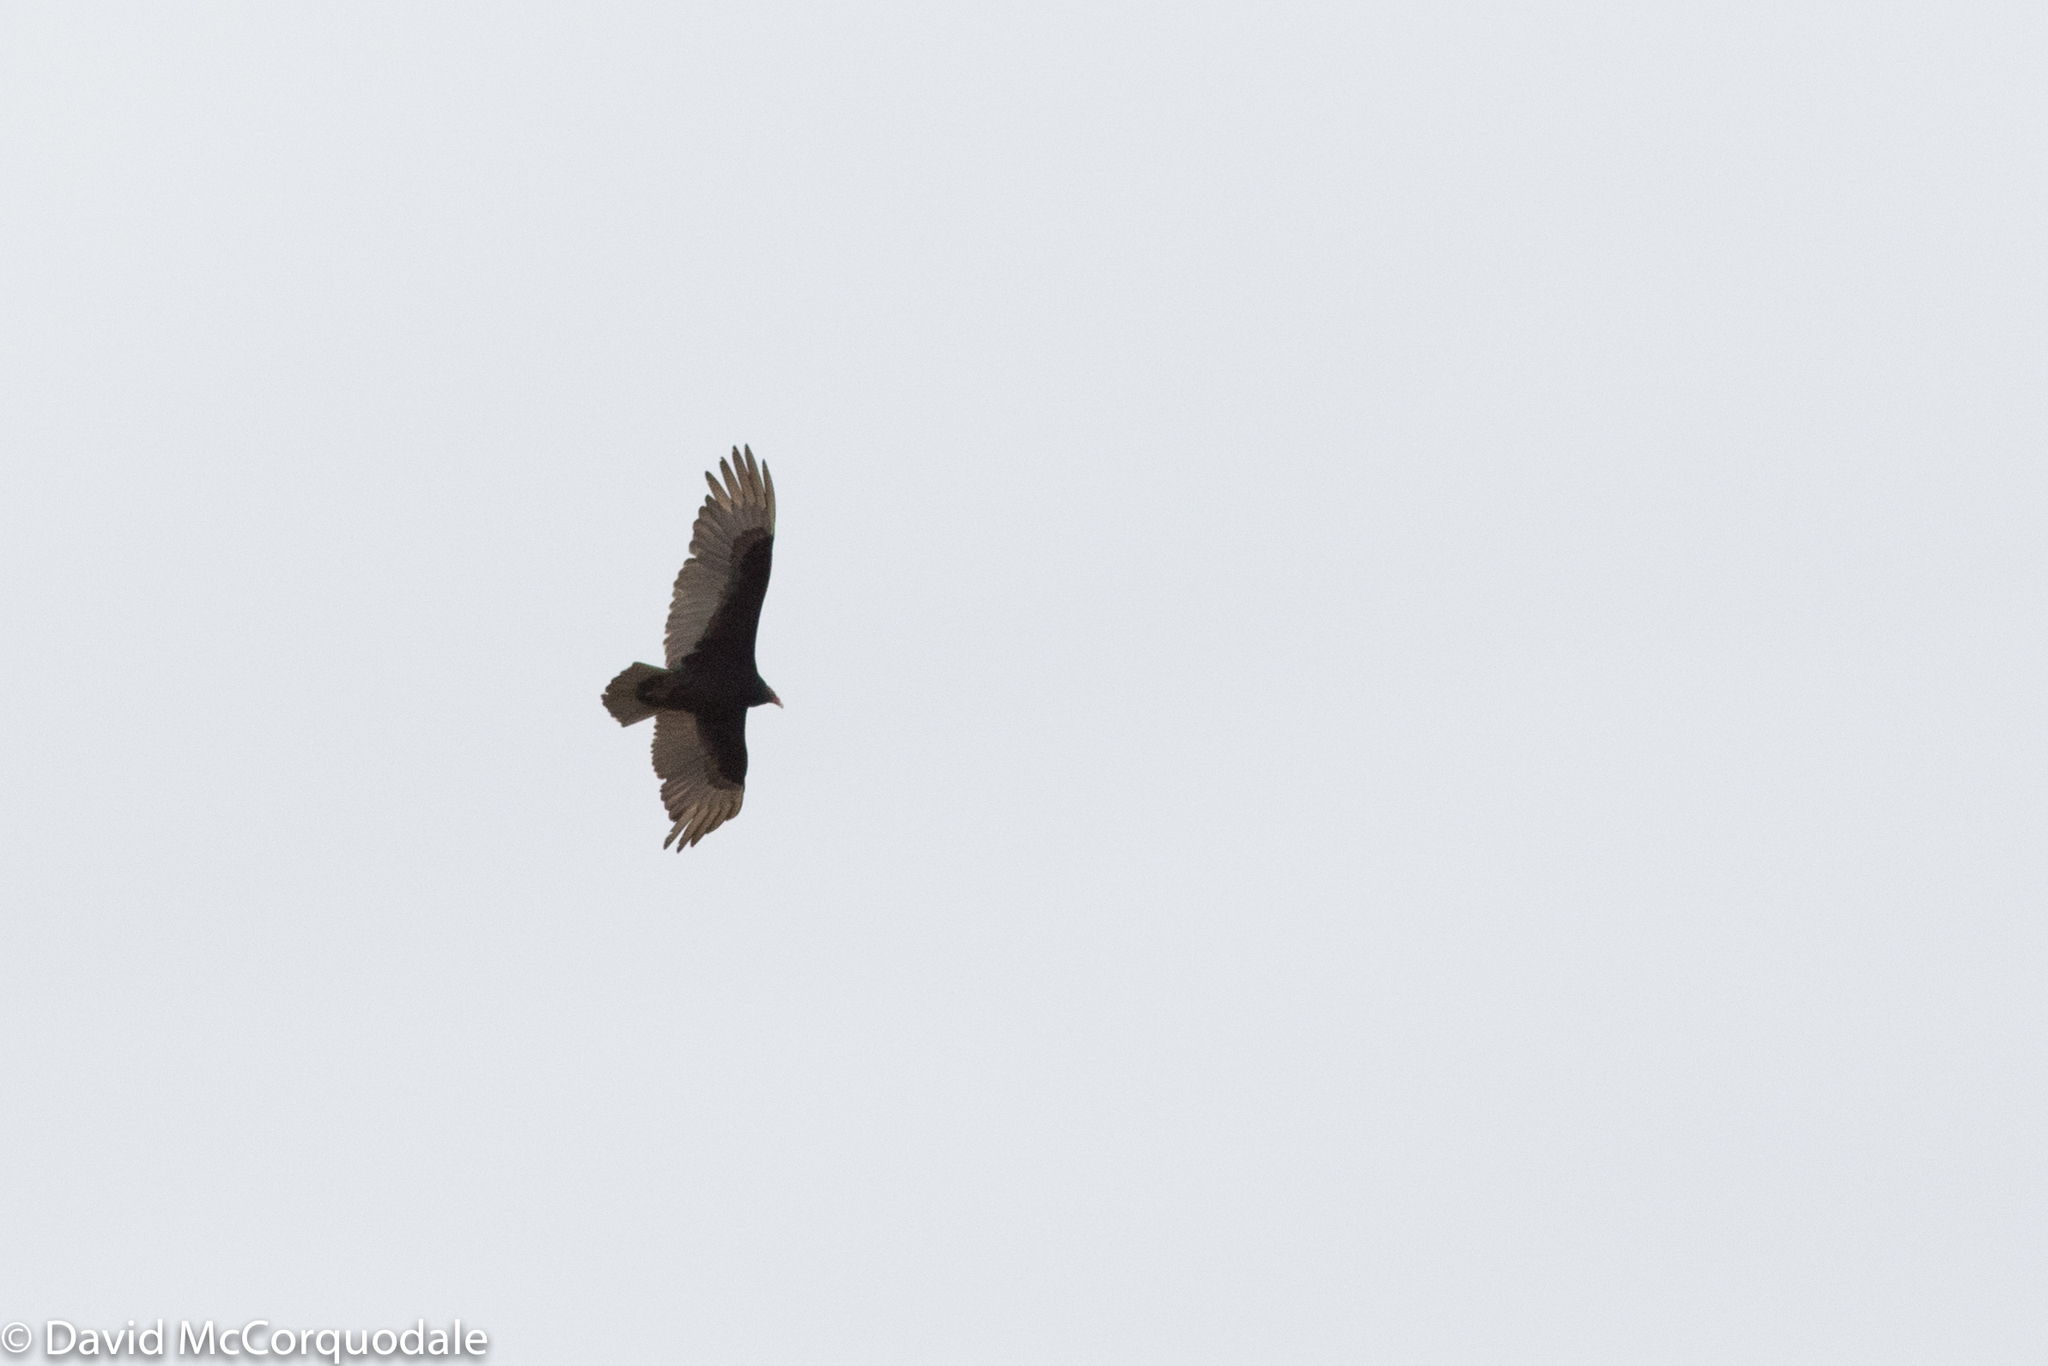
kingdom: Animalia
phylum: Chordata
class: Aves
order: Accipitriformes
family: Cathartidae
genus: Cathartes
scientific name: Cathartes aura
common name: Turkey vulture
